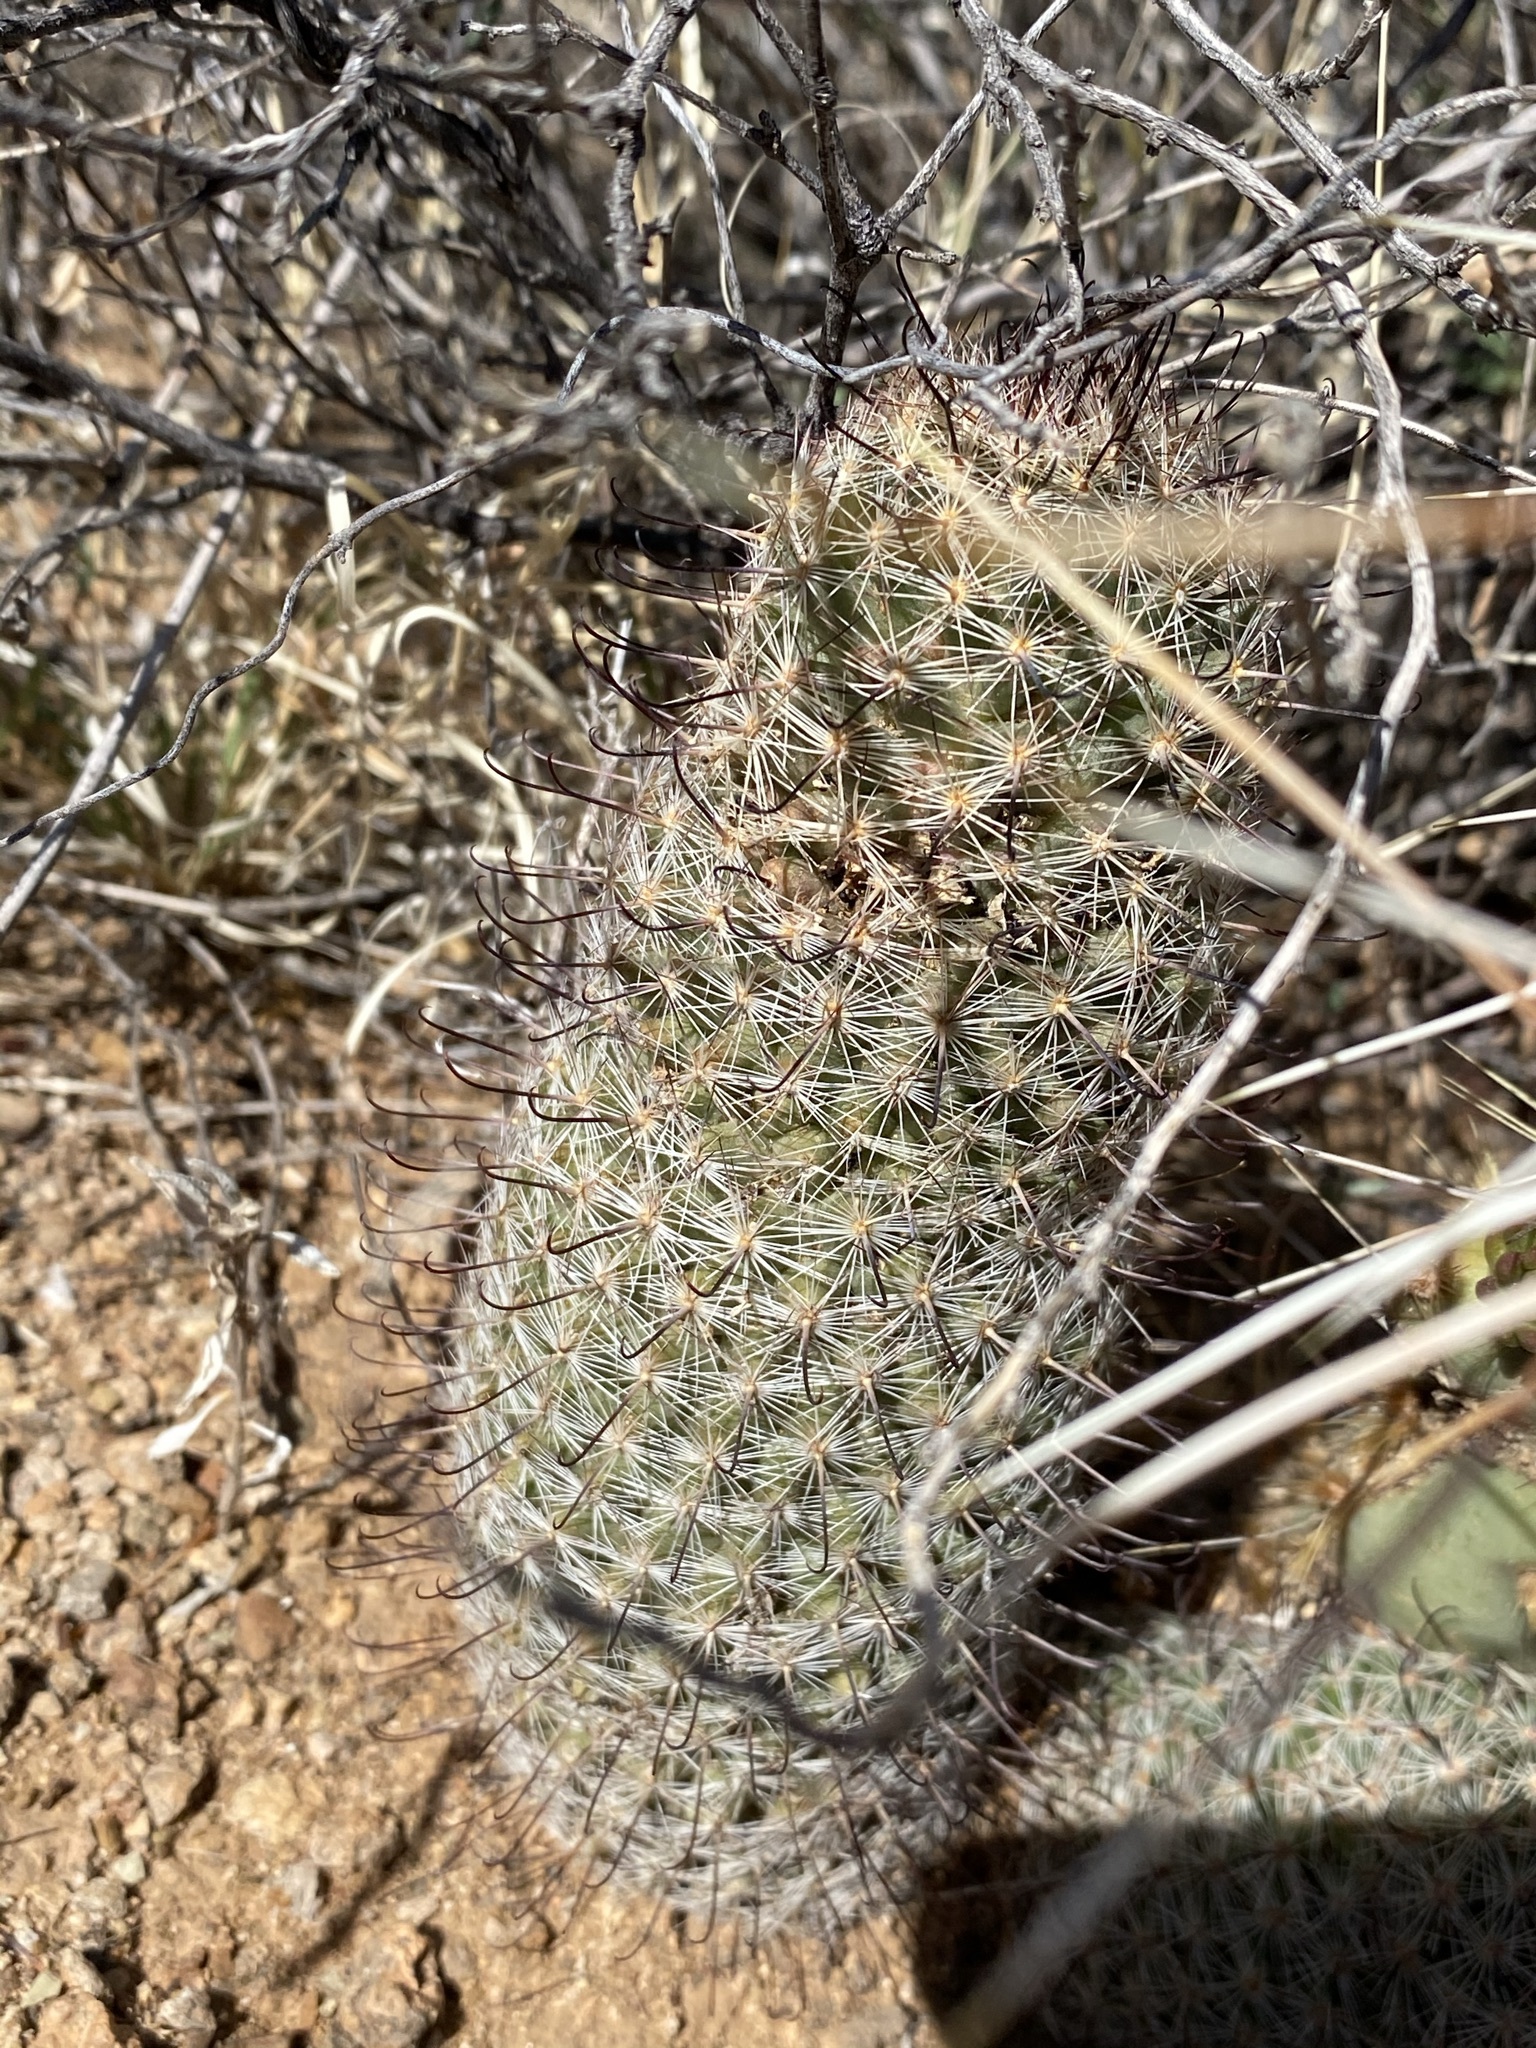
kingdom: Plantae
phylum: Tracheophyta
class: Magnoliopsida
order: Caryophyllales
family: Cactaceae
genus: Cochemiea
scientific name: Cochemiea grahamii
